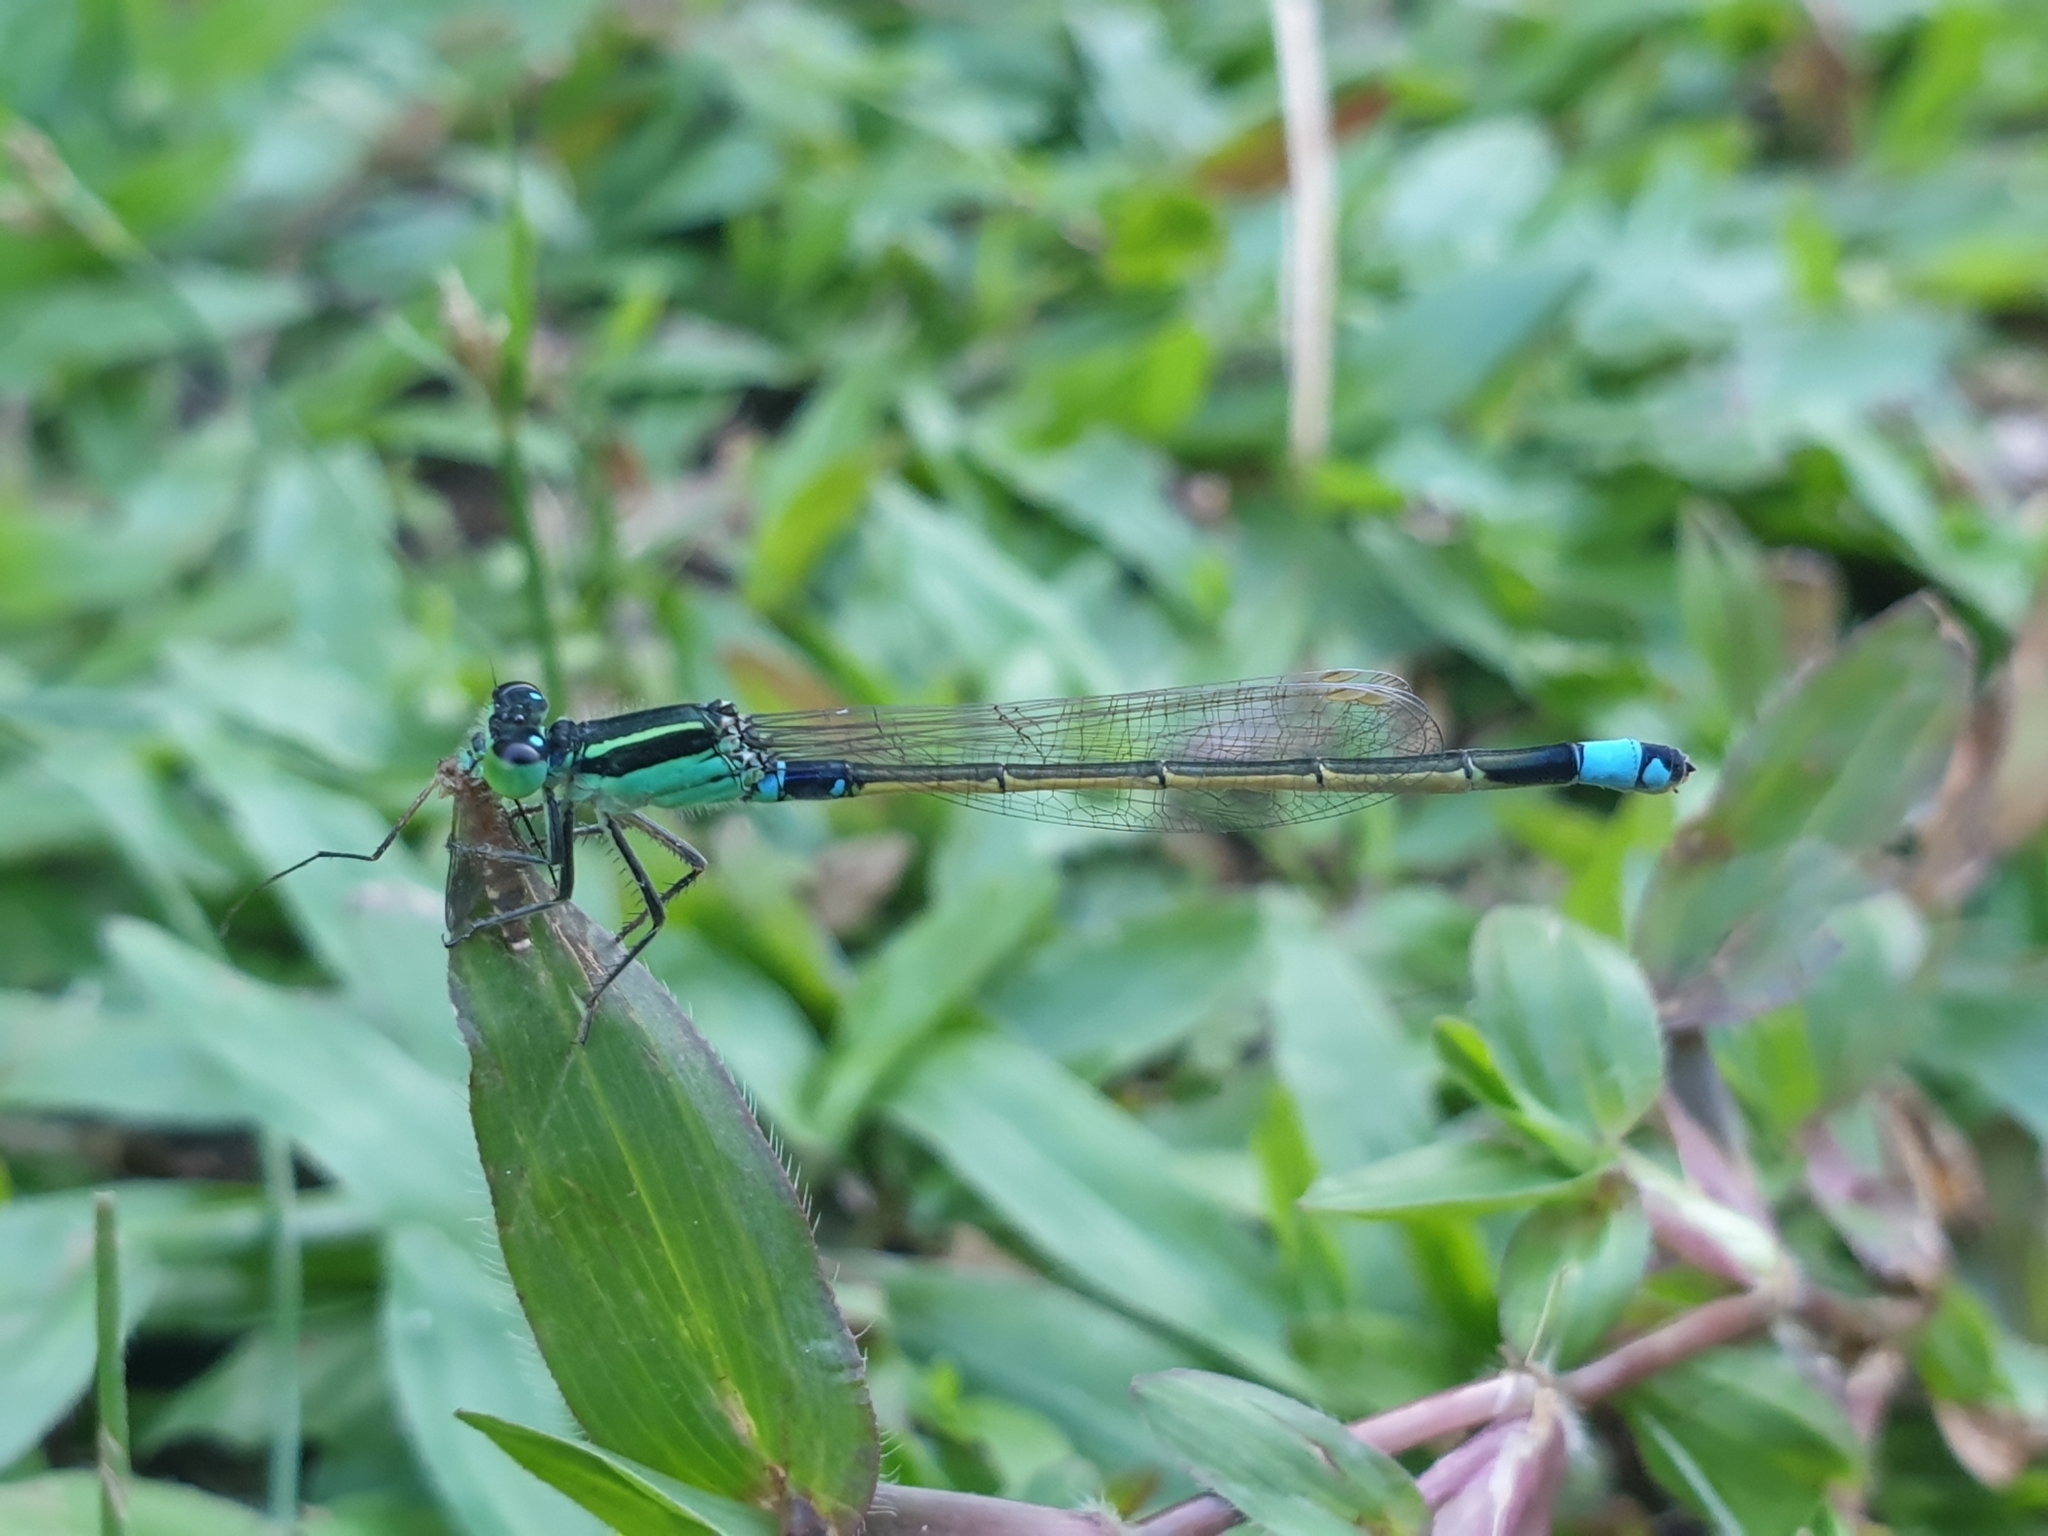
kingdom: Animalia
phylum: Arthropoda
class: Insecta
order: Odonata
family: Coenagrionidae
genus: Ischnura
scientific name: Ischnura senegalensis
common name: Tropical bluetail
